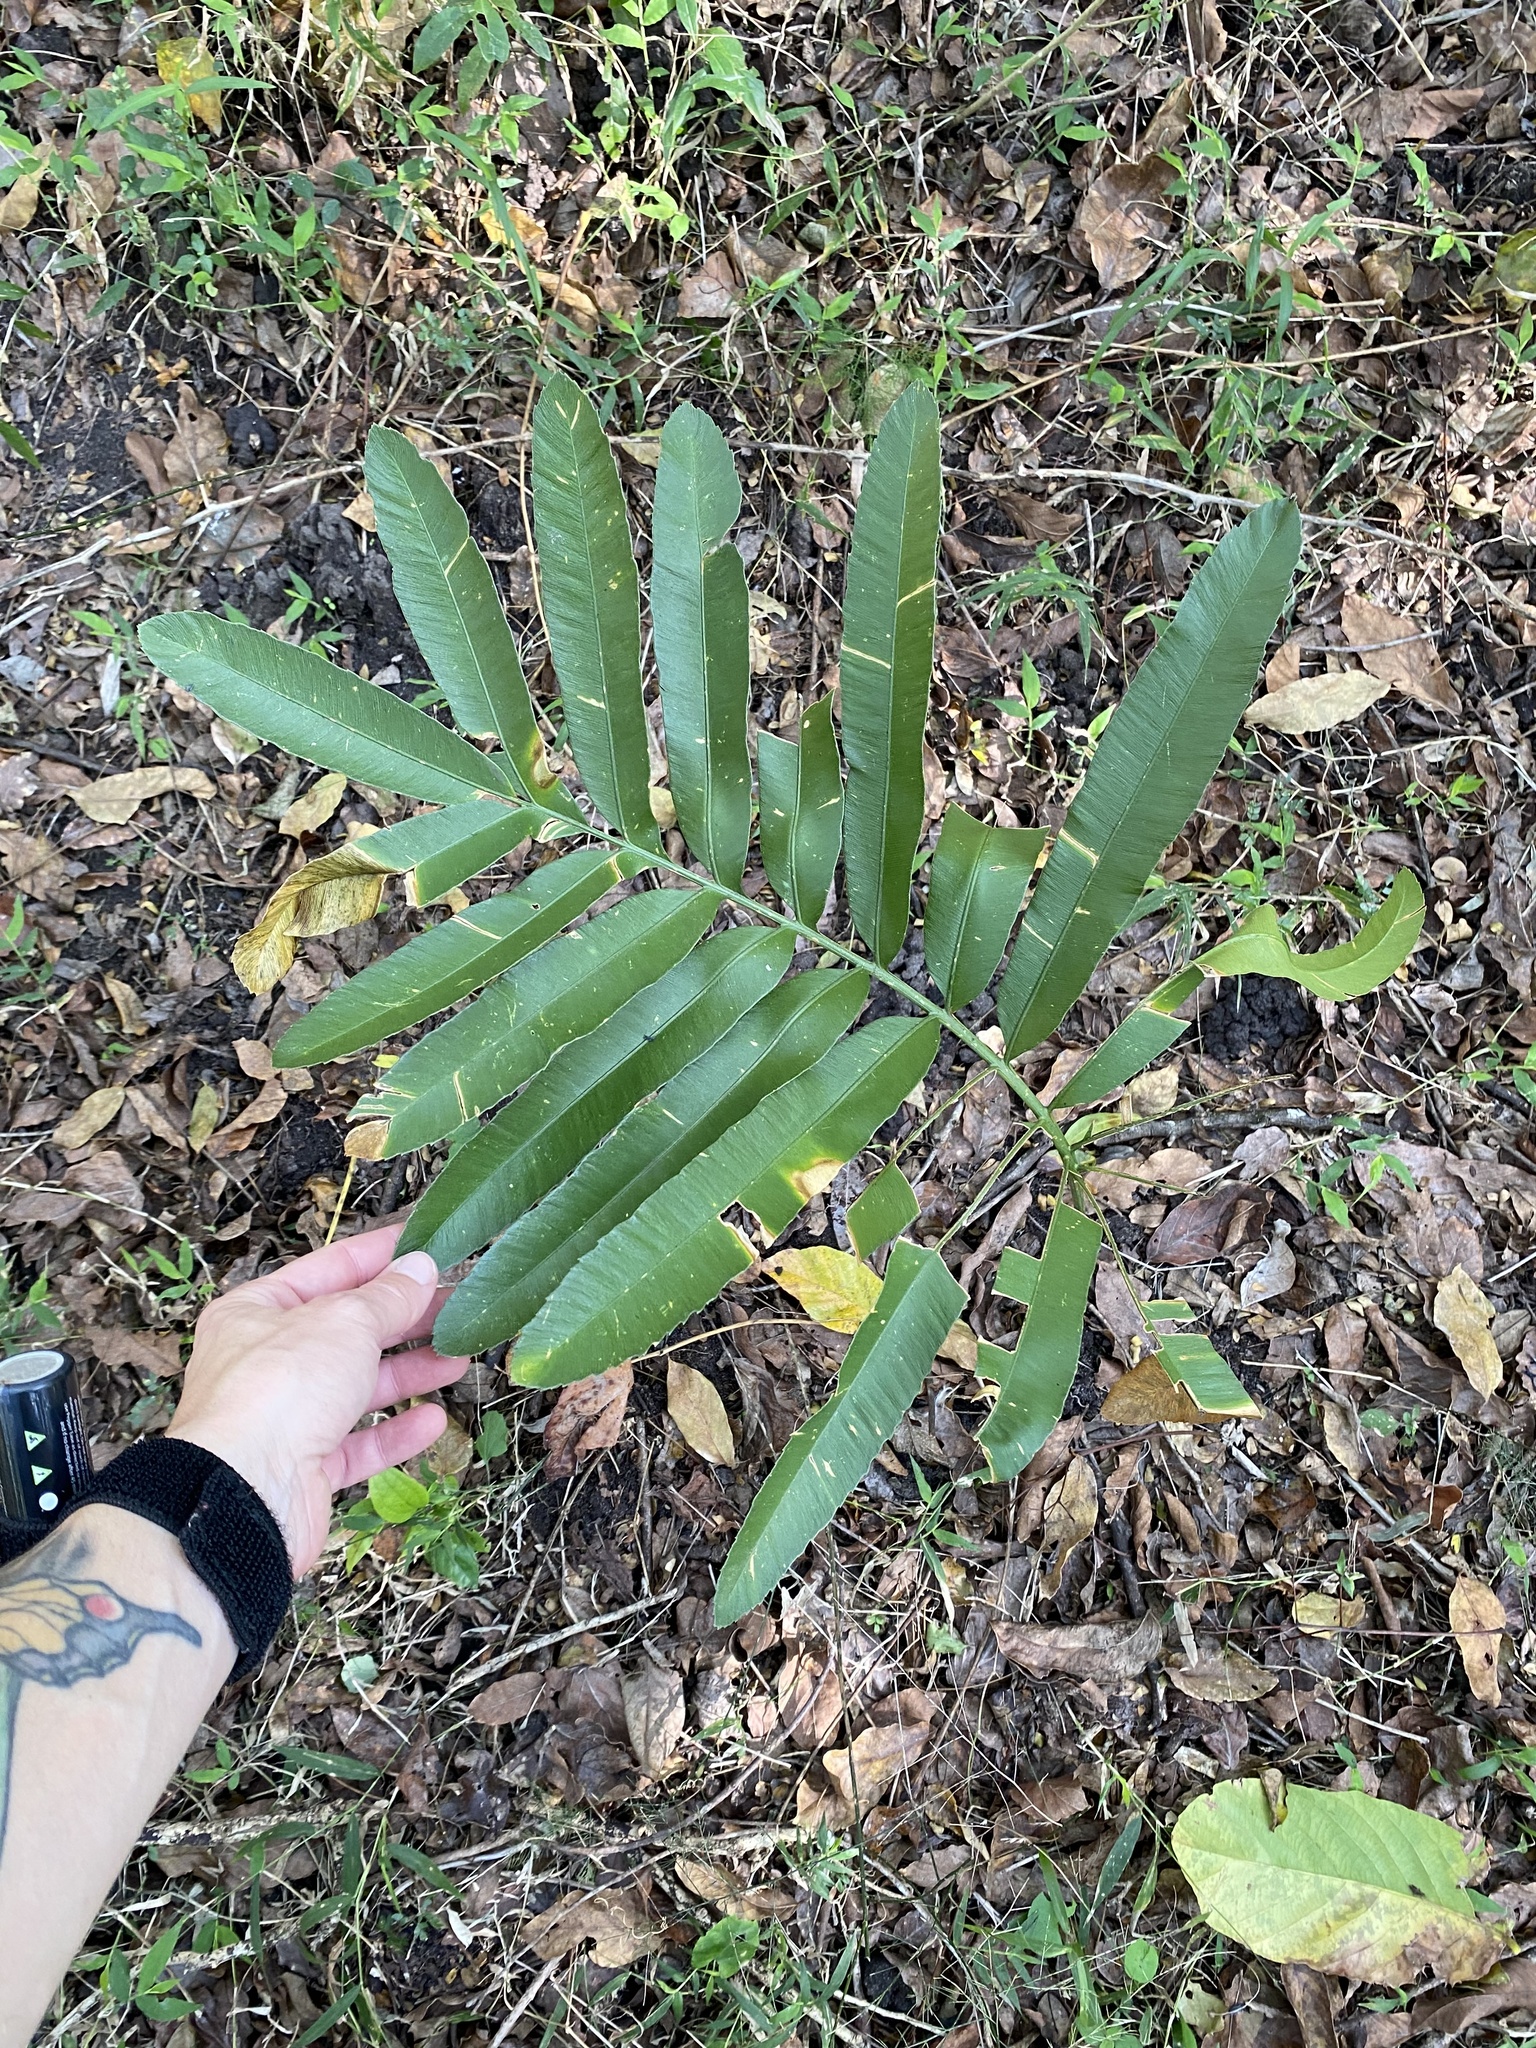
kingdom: Plantae
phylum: Tracheophyta
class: Cycadopsida
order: Cycadales
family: Zamiaceae
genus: Stangeria
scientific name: Stangeria eriopus
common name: Natal grass cycad
